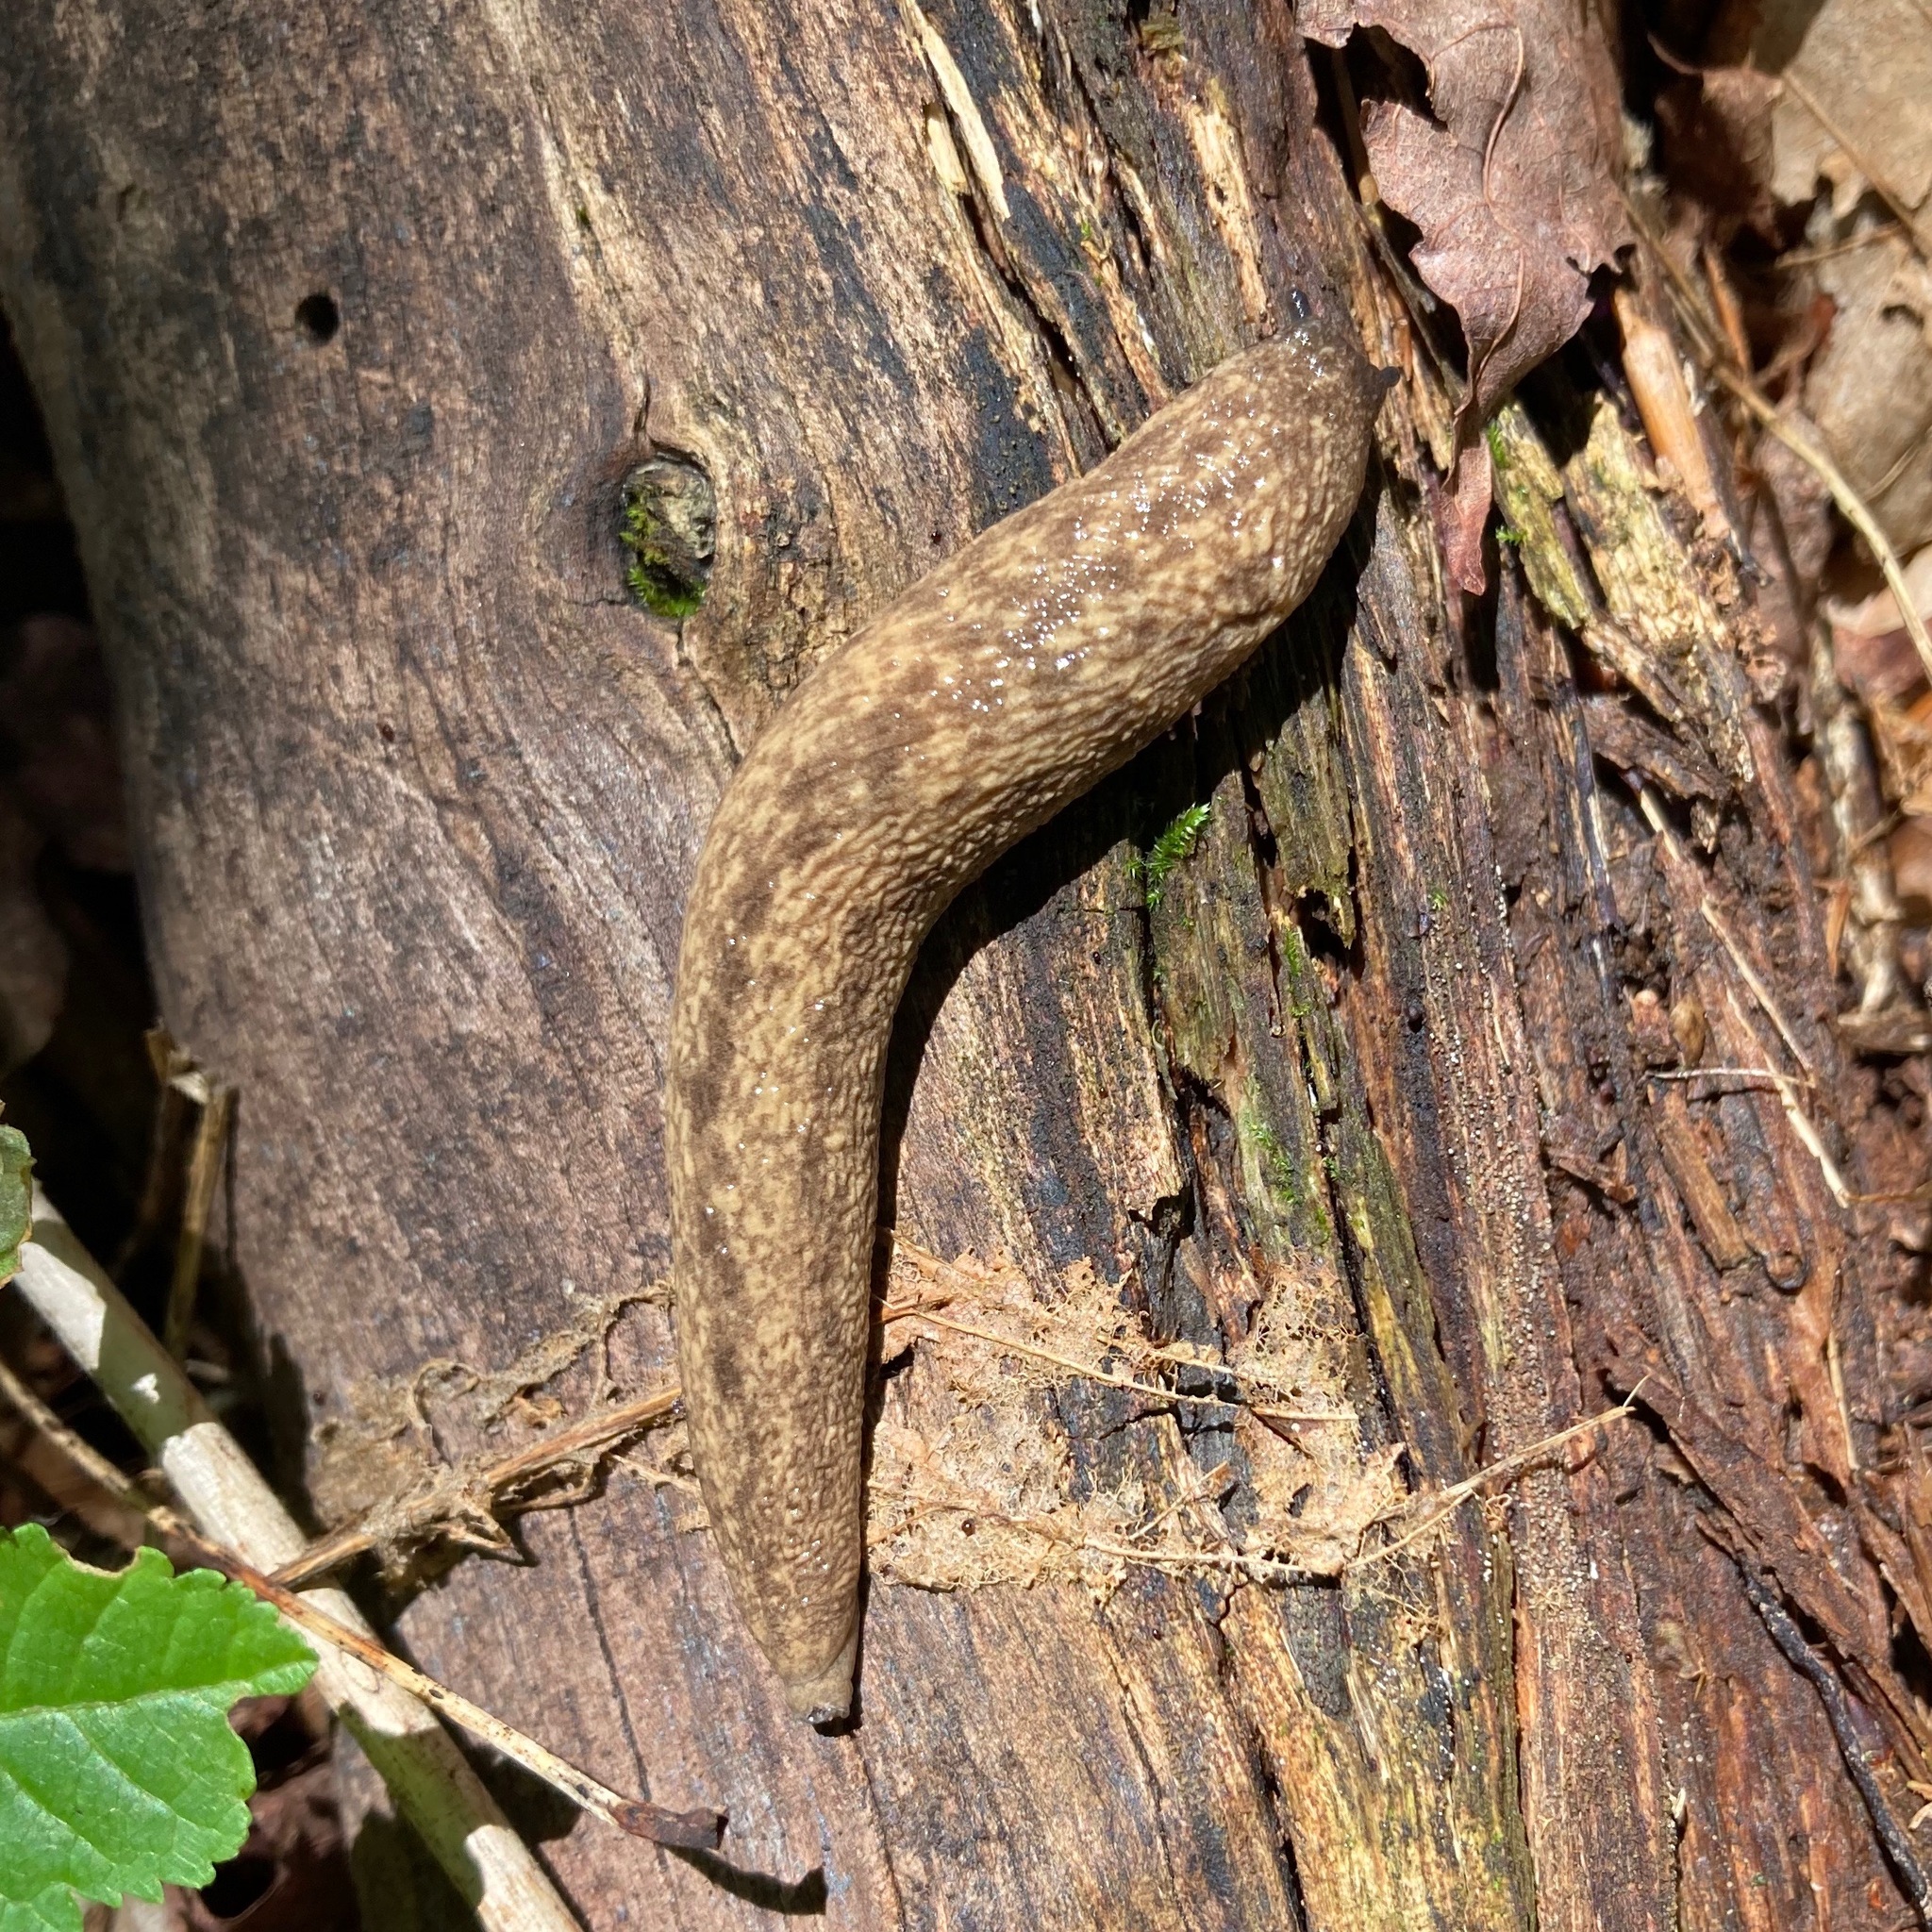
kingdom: Animalia
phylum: Mollusca
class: Gastropoda
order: Stylommatophora
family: Philomycidae
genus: Philomycus
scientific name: Philomycus flexuolaris
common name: Winding mantleslug
